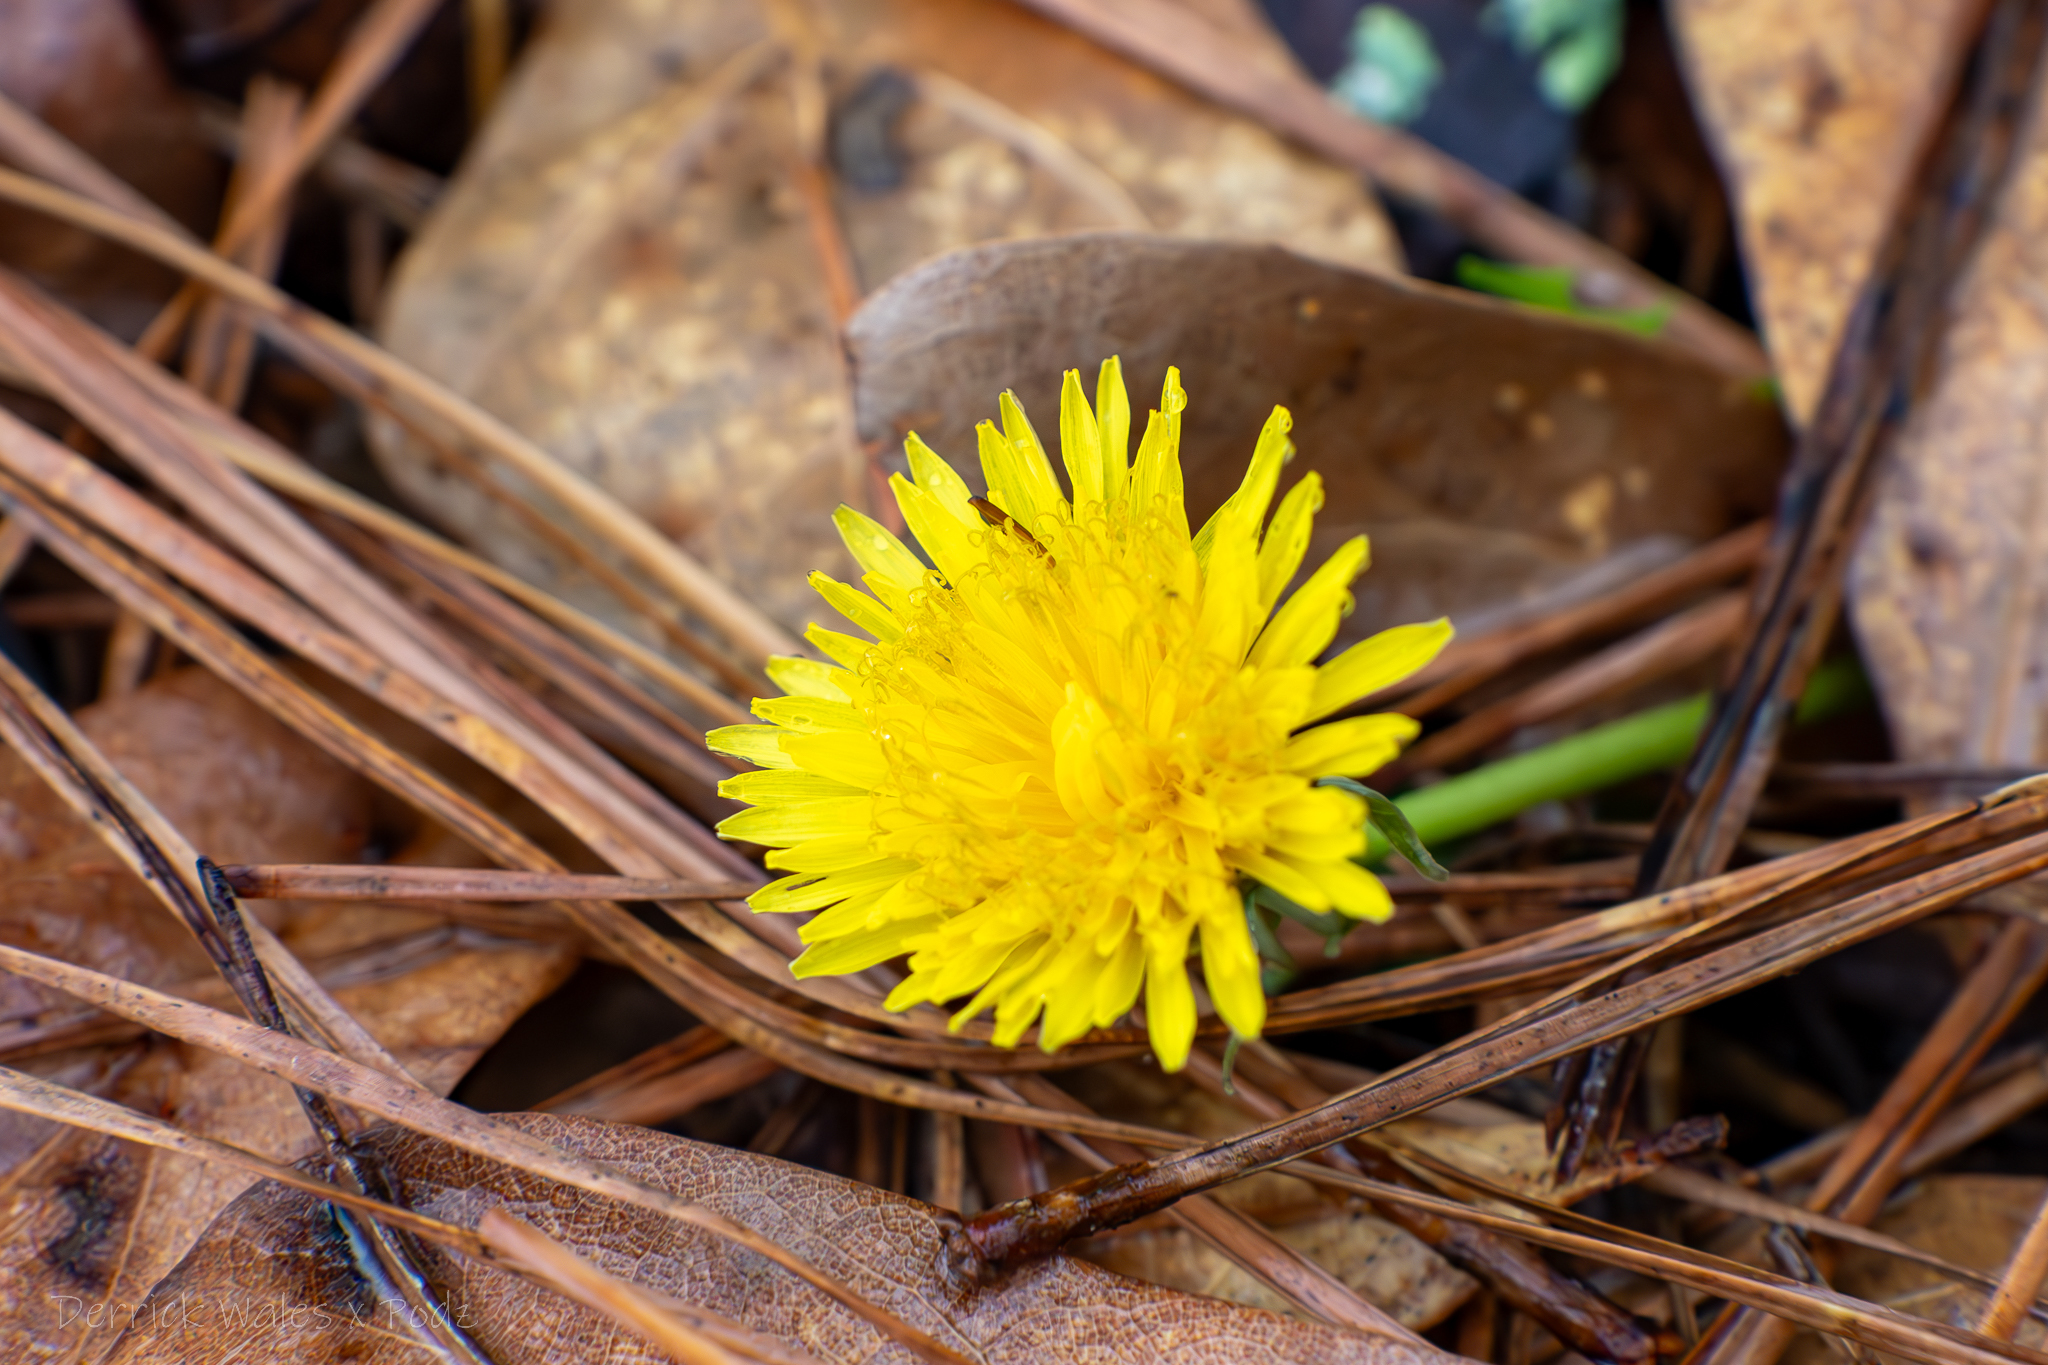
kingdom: Plantae
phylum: Tracheophyta
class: Magnoliopsida
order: Asterales
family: Asteraceae
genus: Taraxacum
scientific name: Taraxacum
